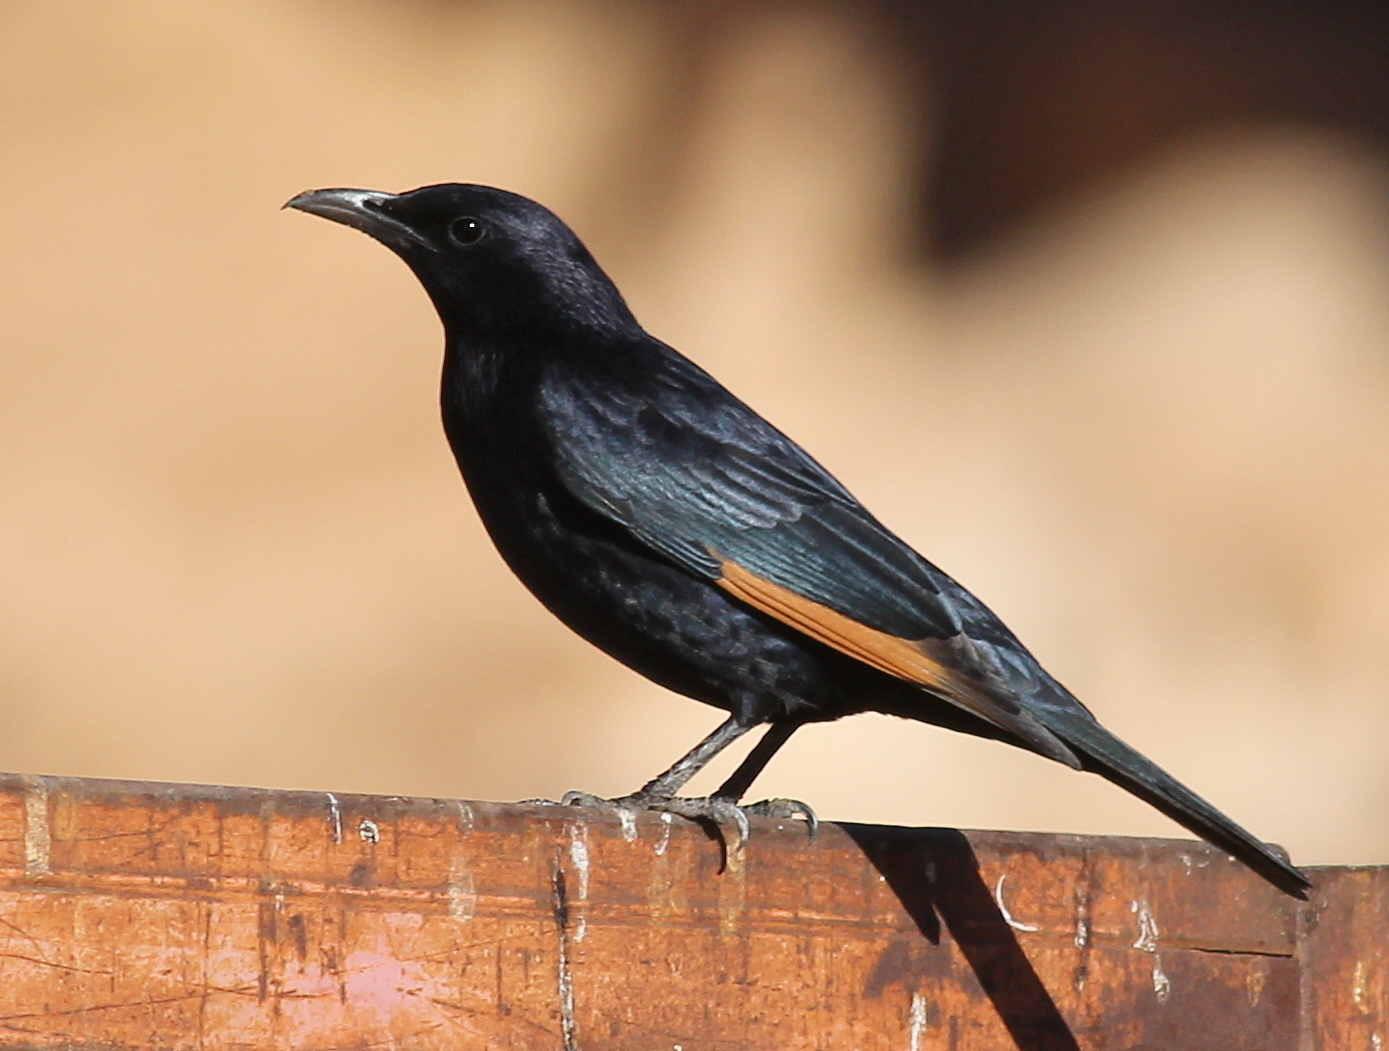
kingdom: Animalia
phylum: Chordata
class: Aves
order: Passeriformes
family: Sturnidae
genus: Onychognathus
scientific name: Onychognathus tristramii
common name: Tristram's starling
